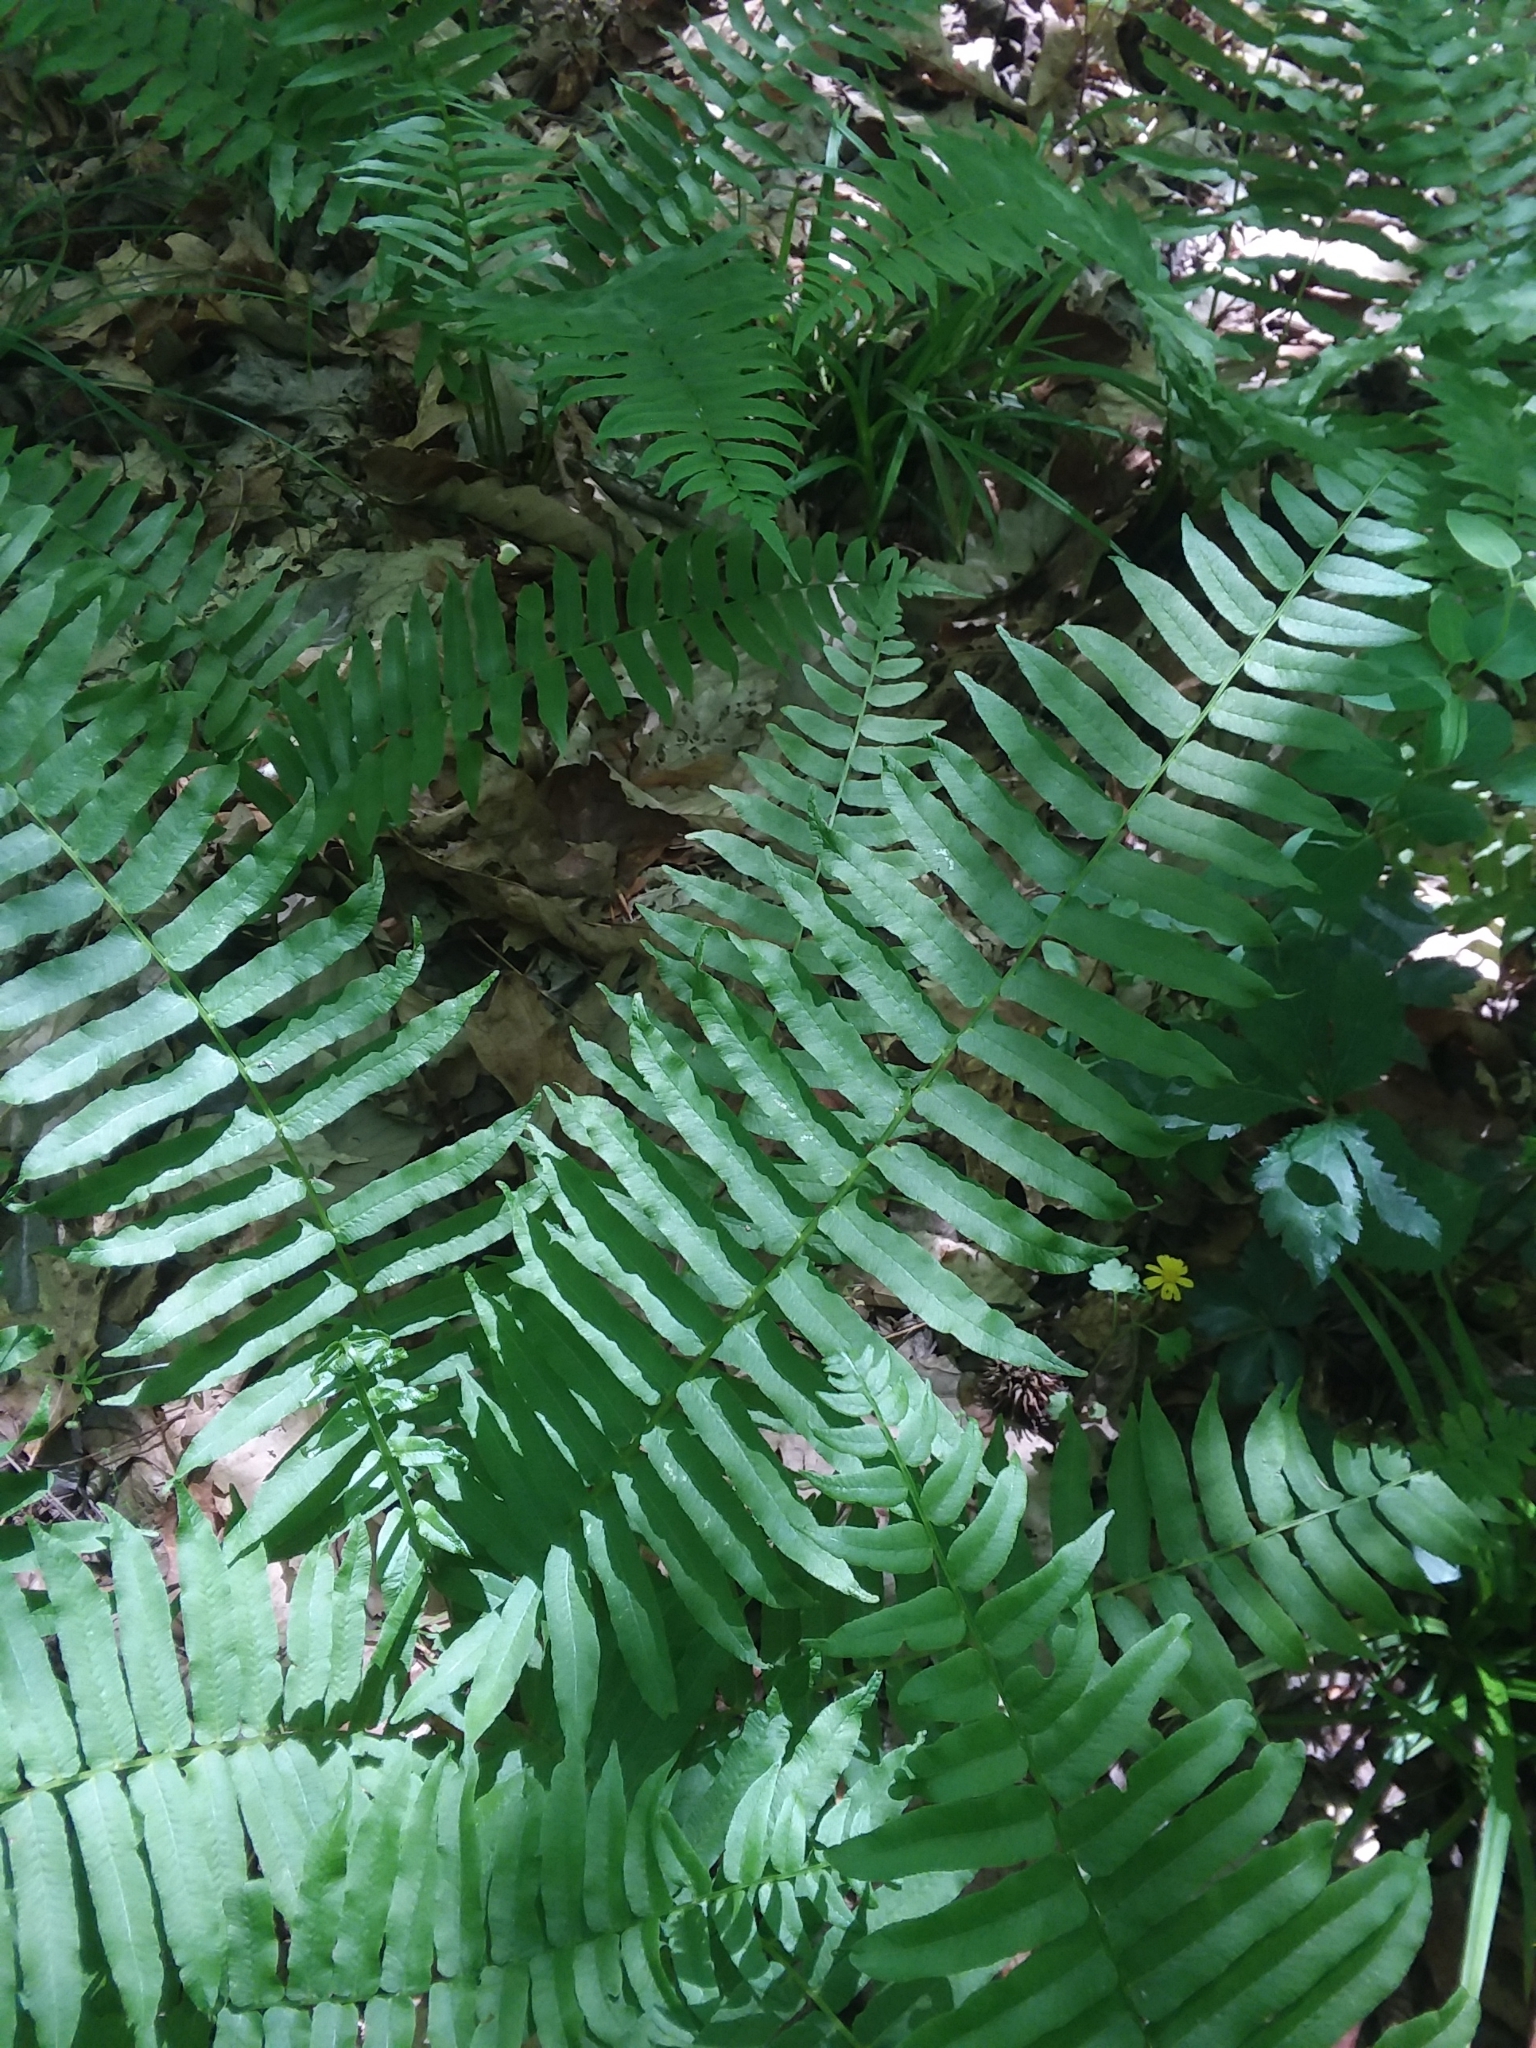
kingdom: Plantae
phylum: Tracheophyta
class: Polypodiopsida
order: Polypodiales
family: Diplaziopsidaceae
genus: Homalosorus
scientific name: Homalosorus pycnocarpos
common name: Glade fern
